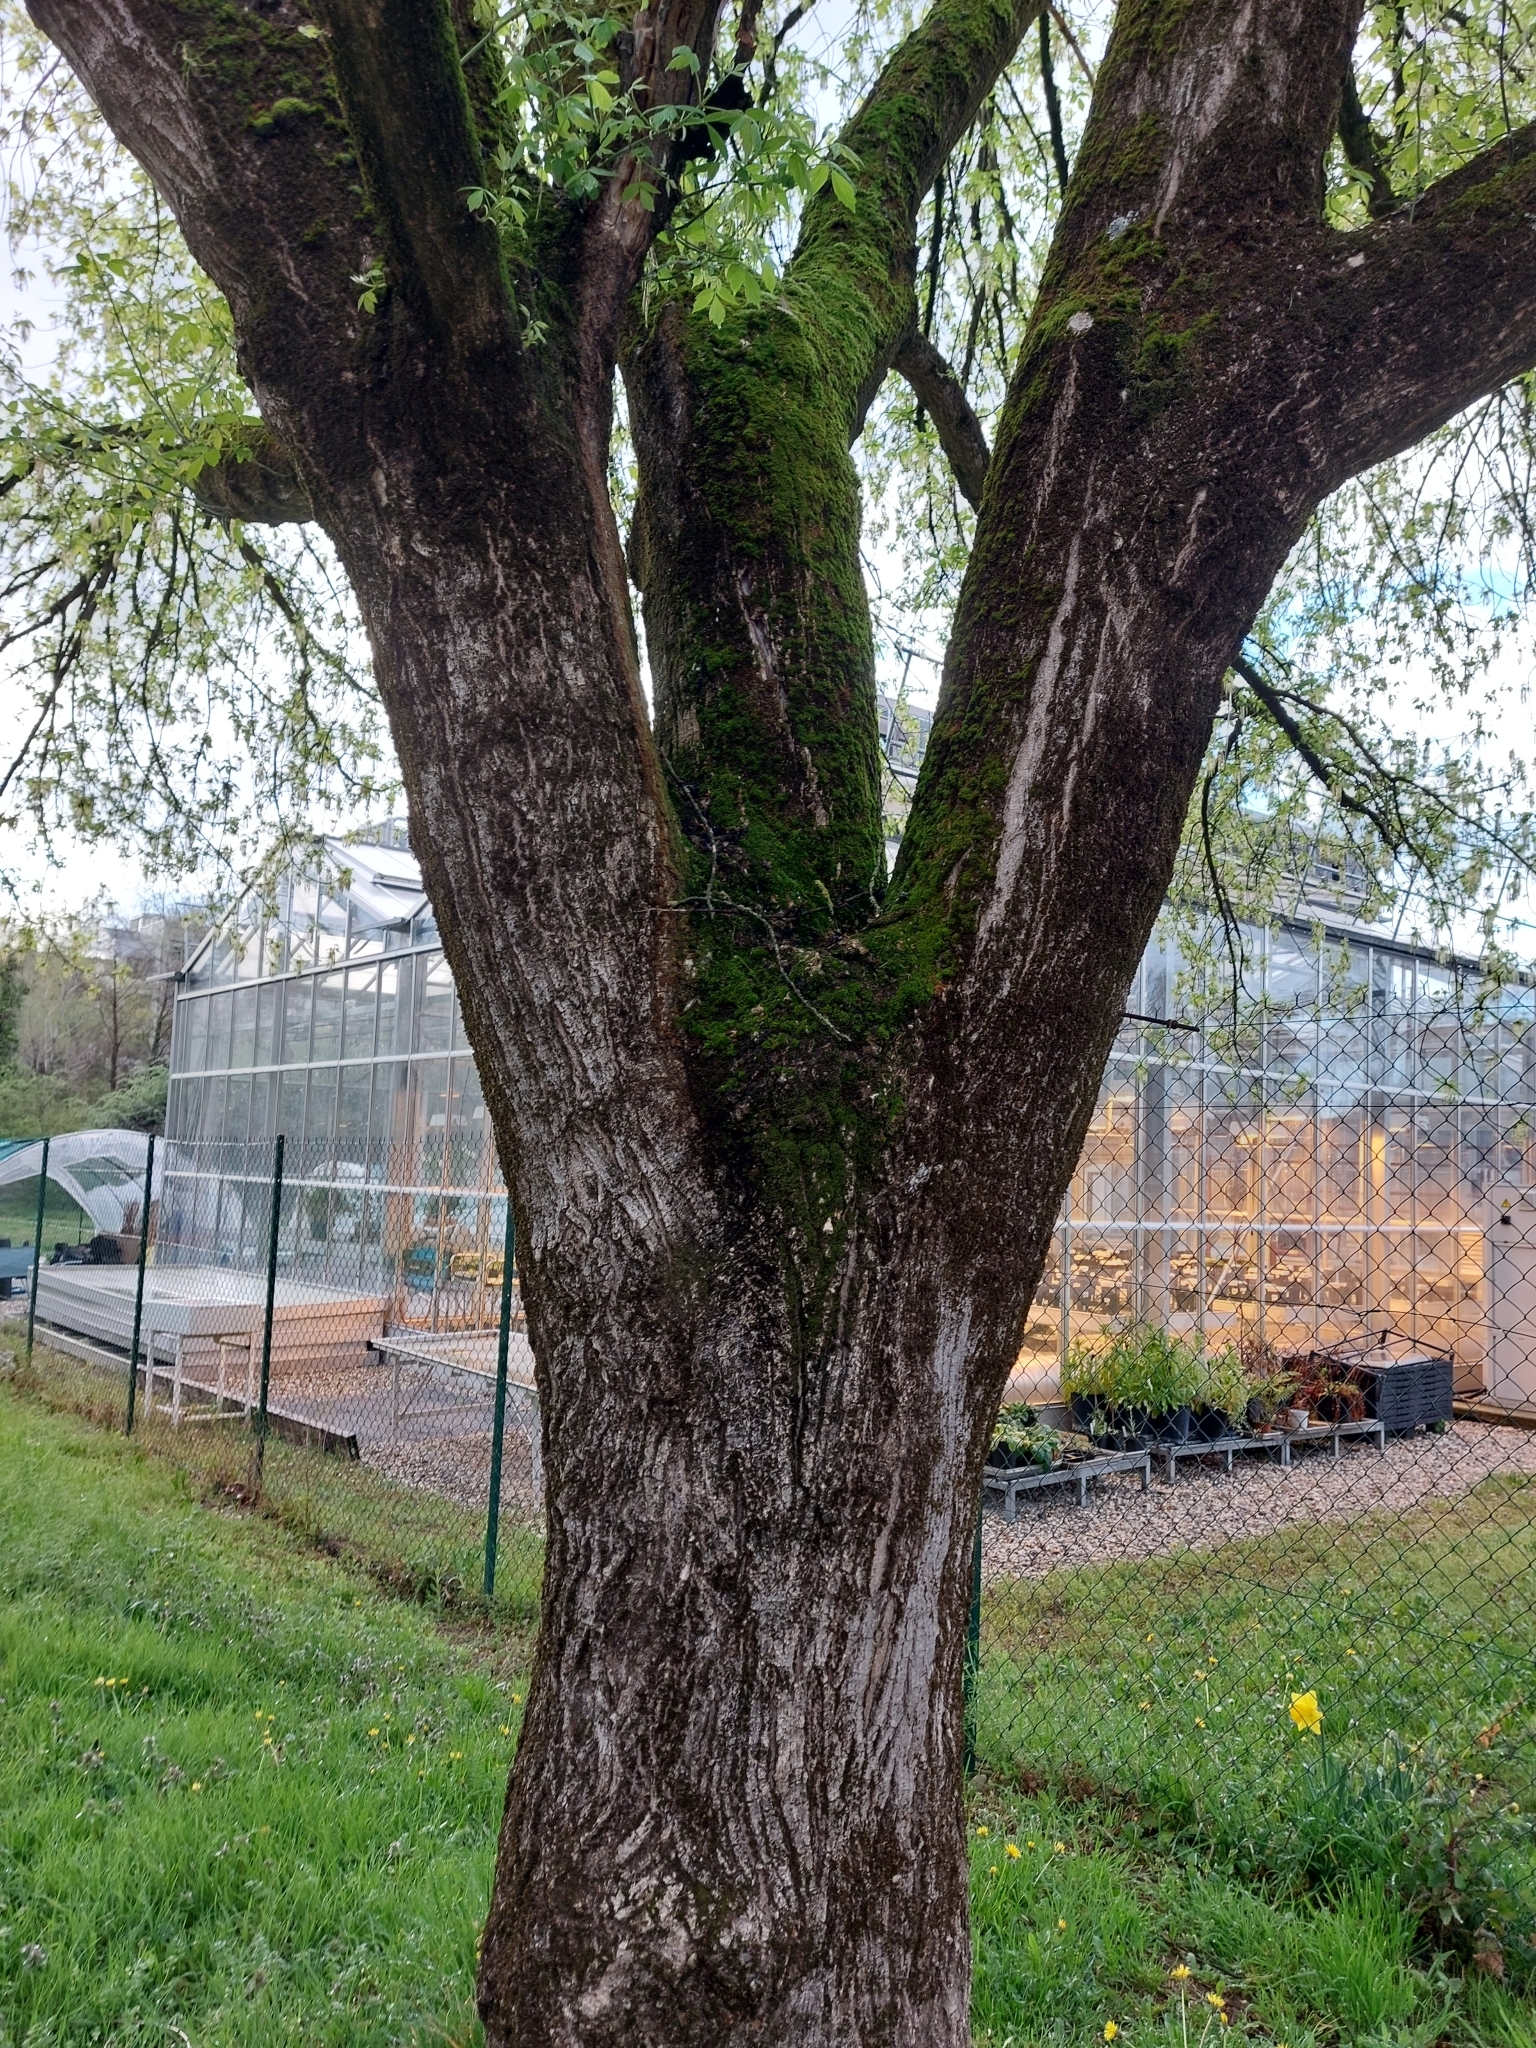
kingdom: Plantae
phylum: Tracheophyta
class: Magnoliopsida
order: Sapindales
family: Sapindaceae
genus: Acer
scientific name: Acer negundo
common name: Ashleaf maple
